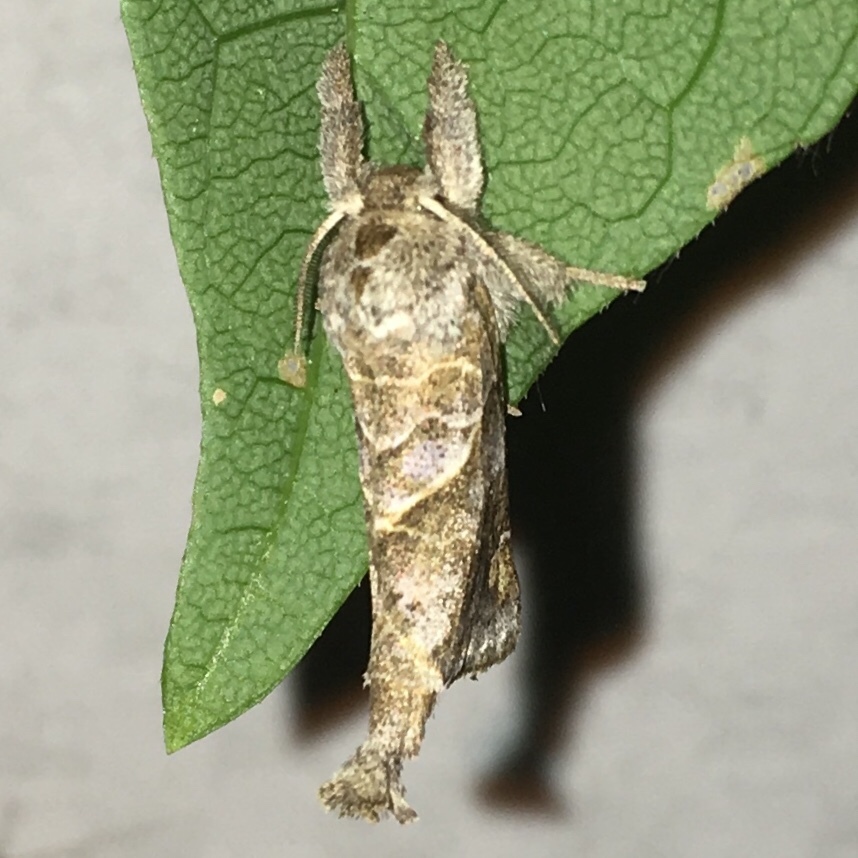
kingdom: Animalia
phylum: Arthropoda
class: Insecta
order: Lepidoptera
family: Notodontidae
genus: Clostera
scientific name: Clostera strigosa
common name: Striped chocolate-tip moth
